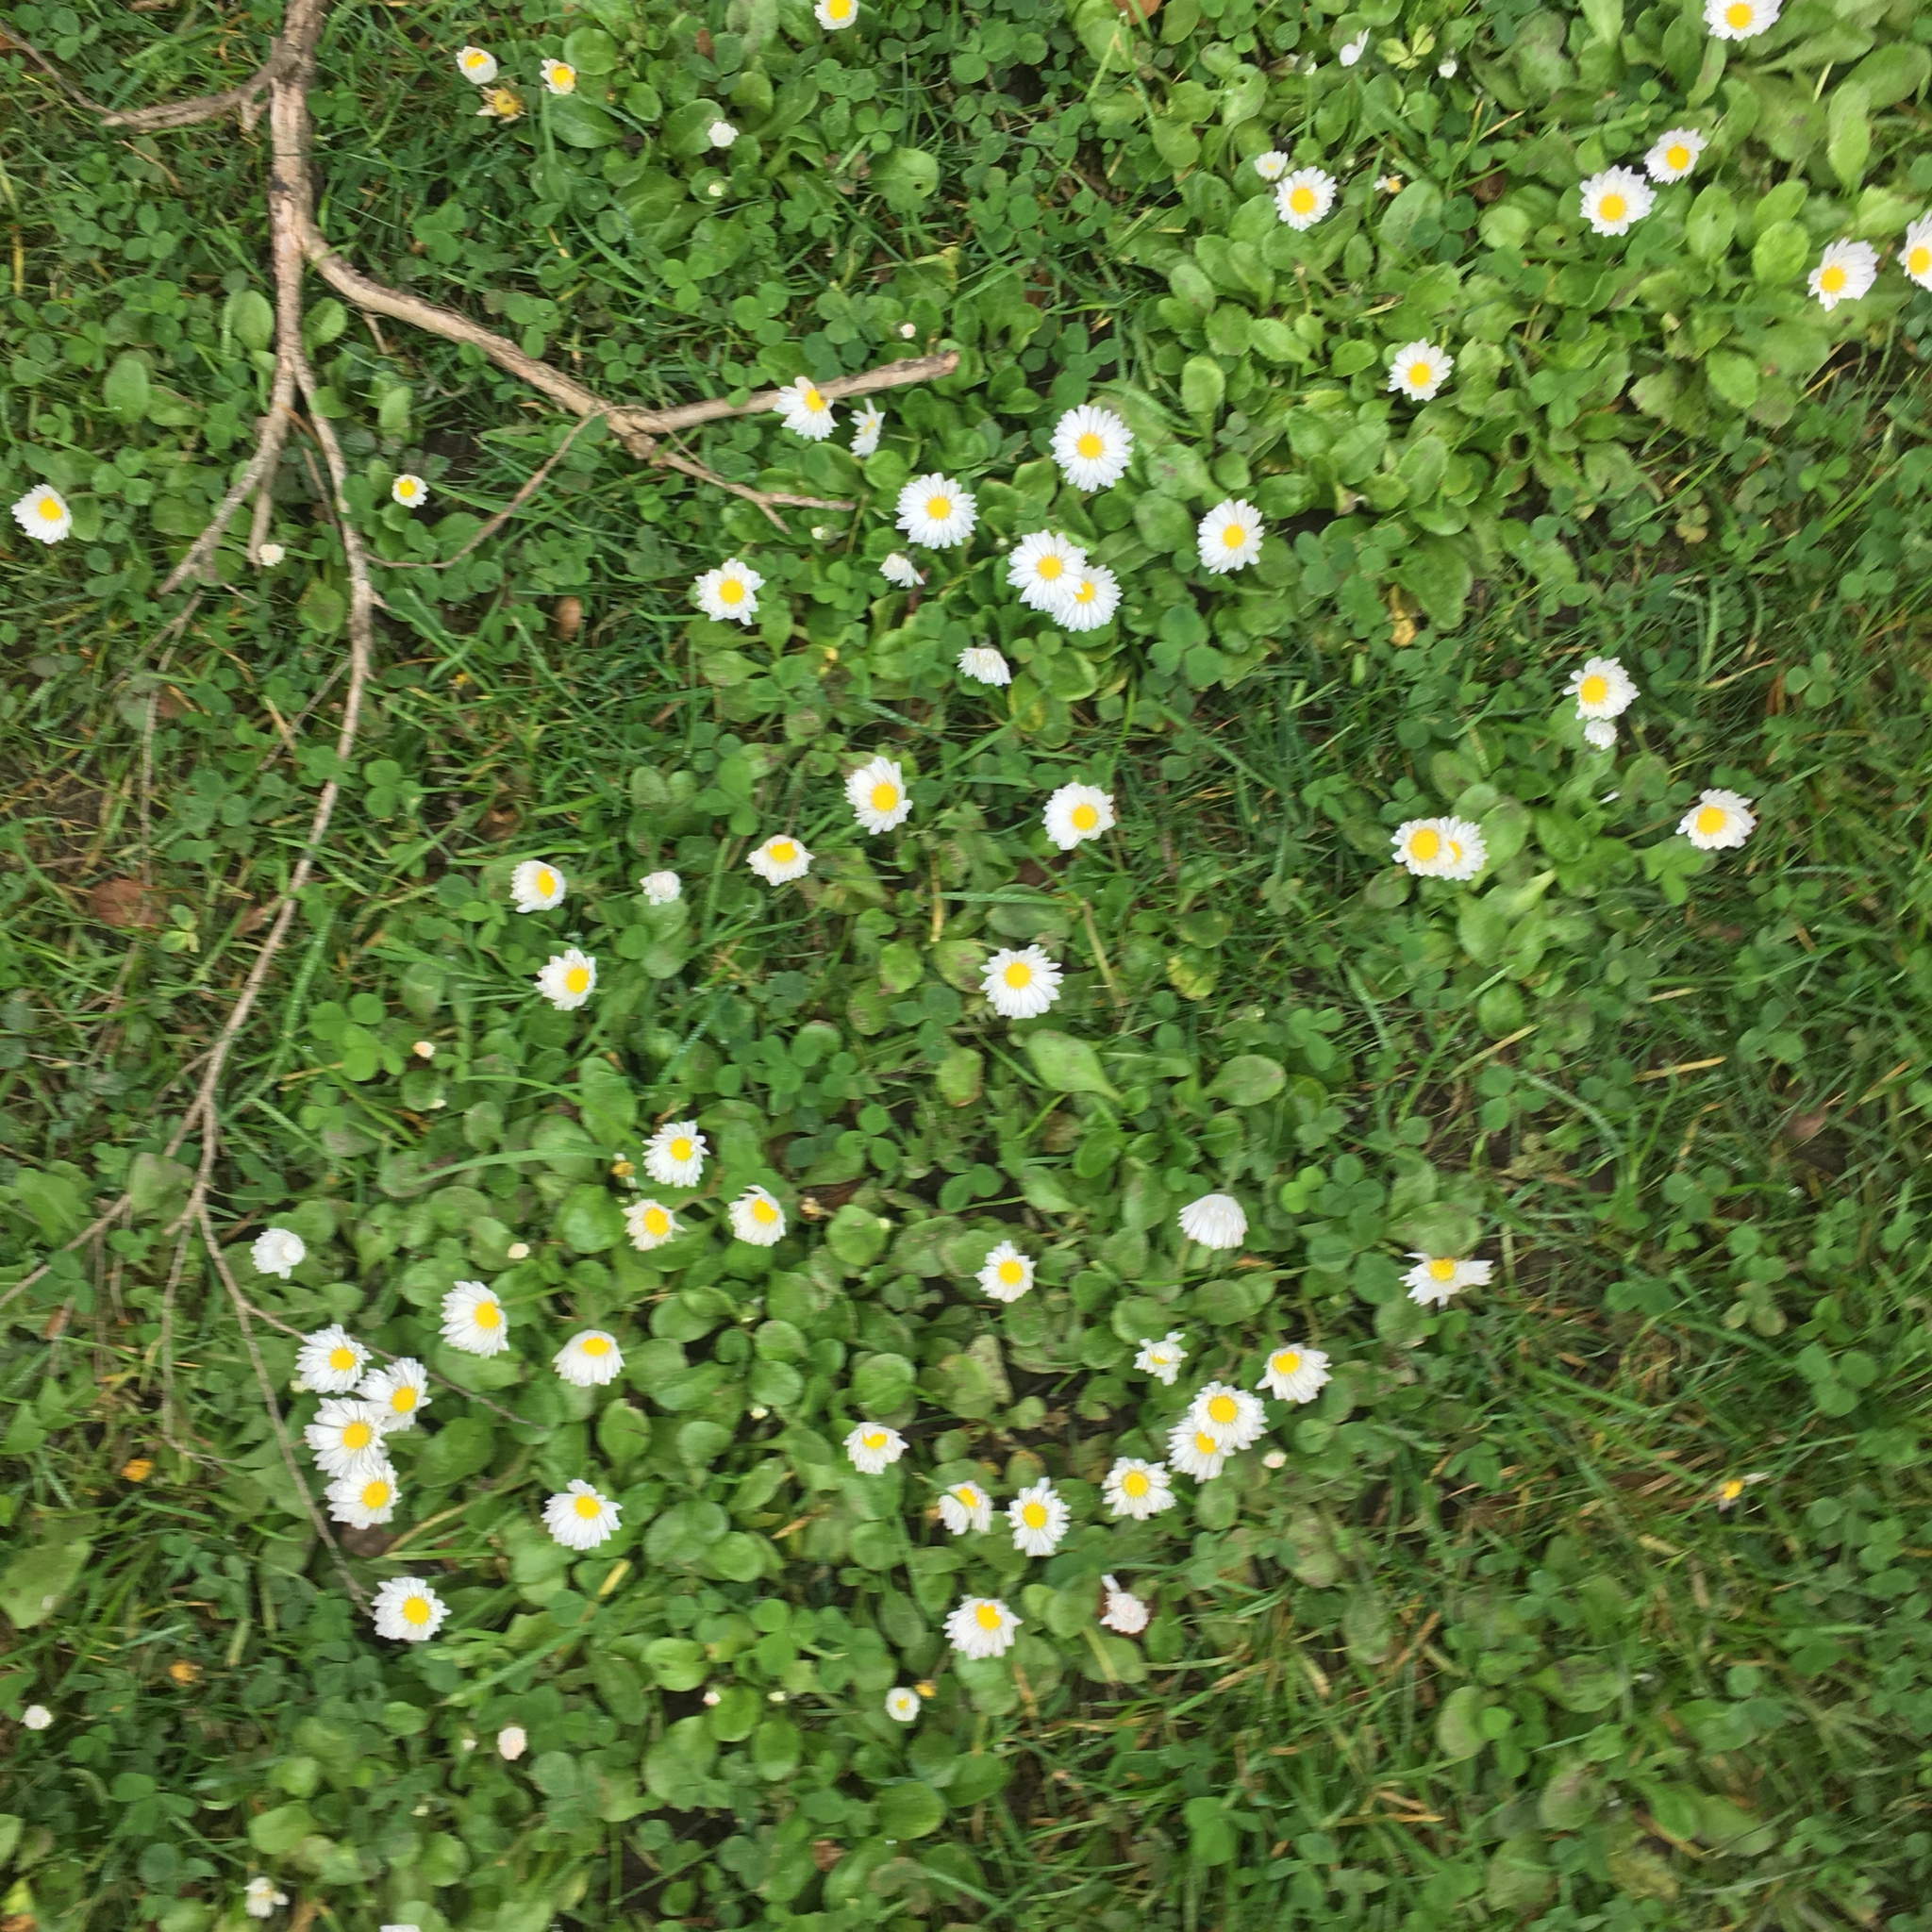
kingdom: Plantae
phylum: Tracheophyta
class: Magnoliopsida
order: Asterales
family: Asteraceae
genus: Bellis
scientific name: Bellis perennis
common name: Lawndaisy
